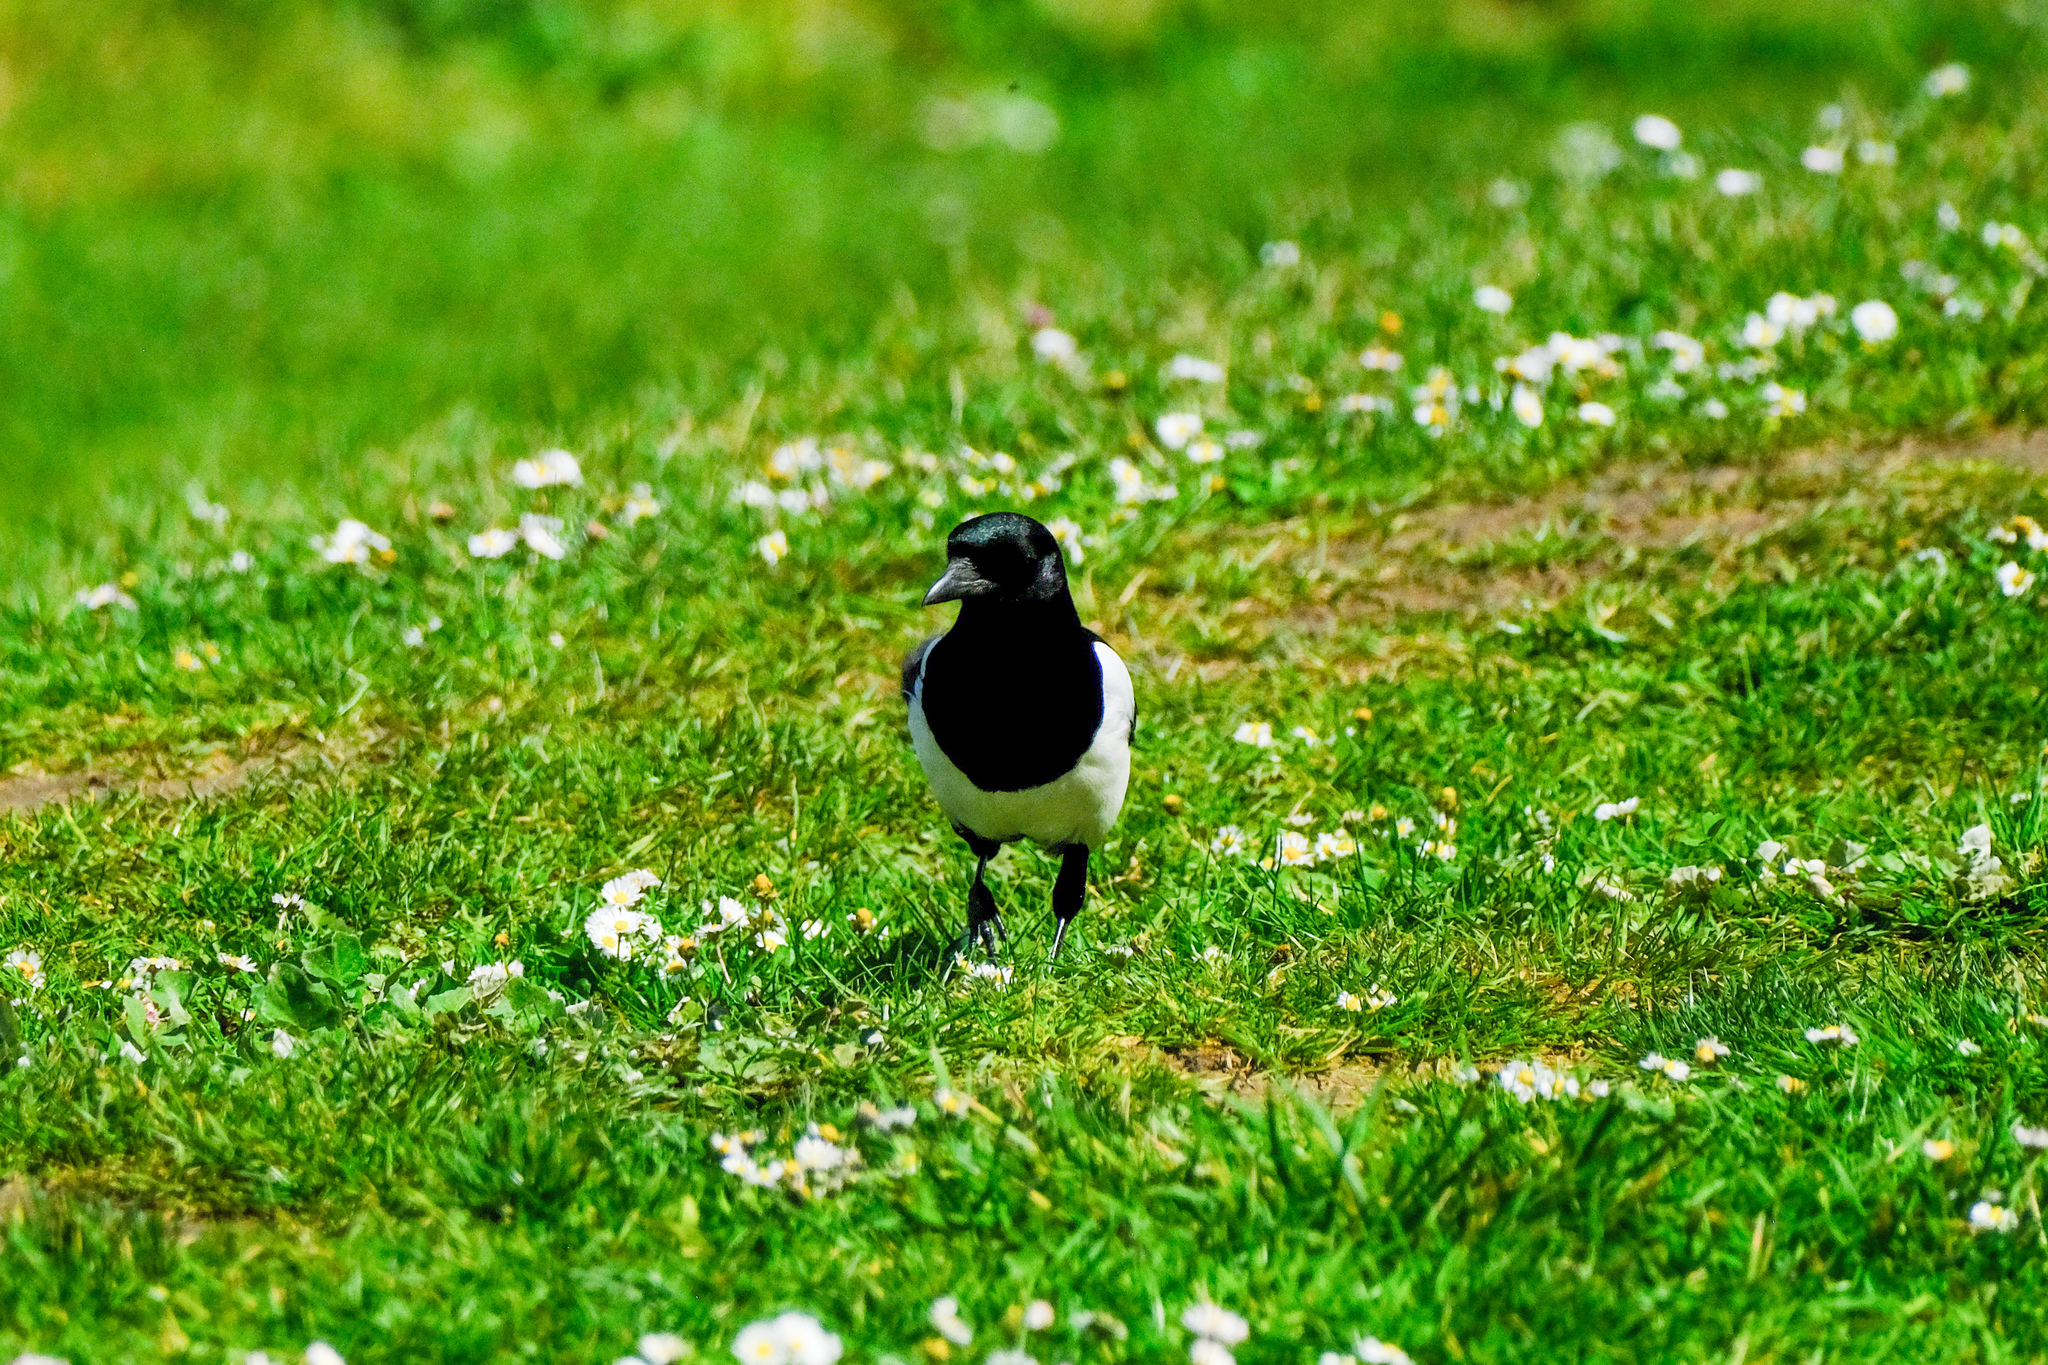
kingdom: Animalia
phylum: Chordata
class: Aves
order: Passeriformes
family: Corvidae
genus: Pica
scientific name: Pica pica
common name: Eurasian magpie
